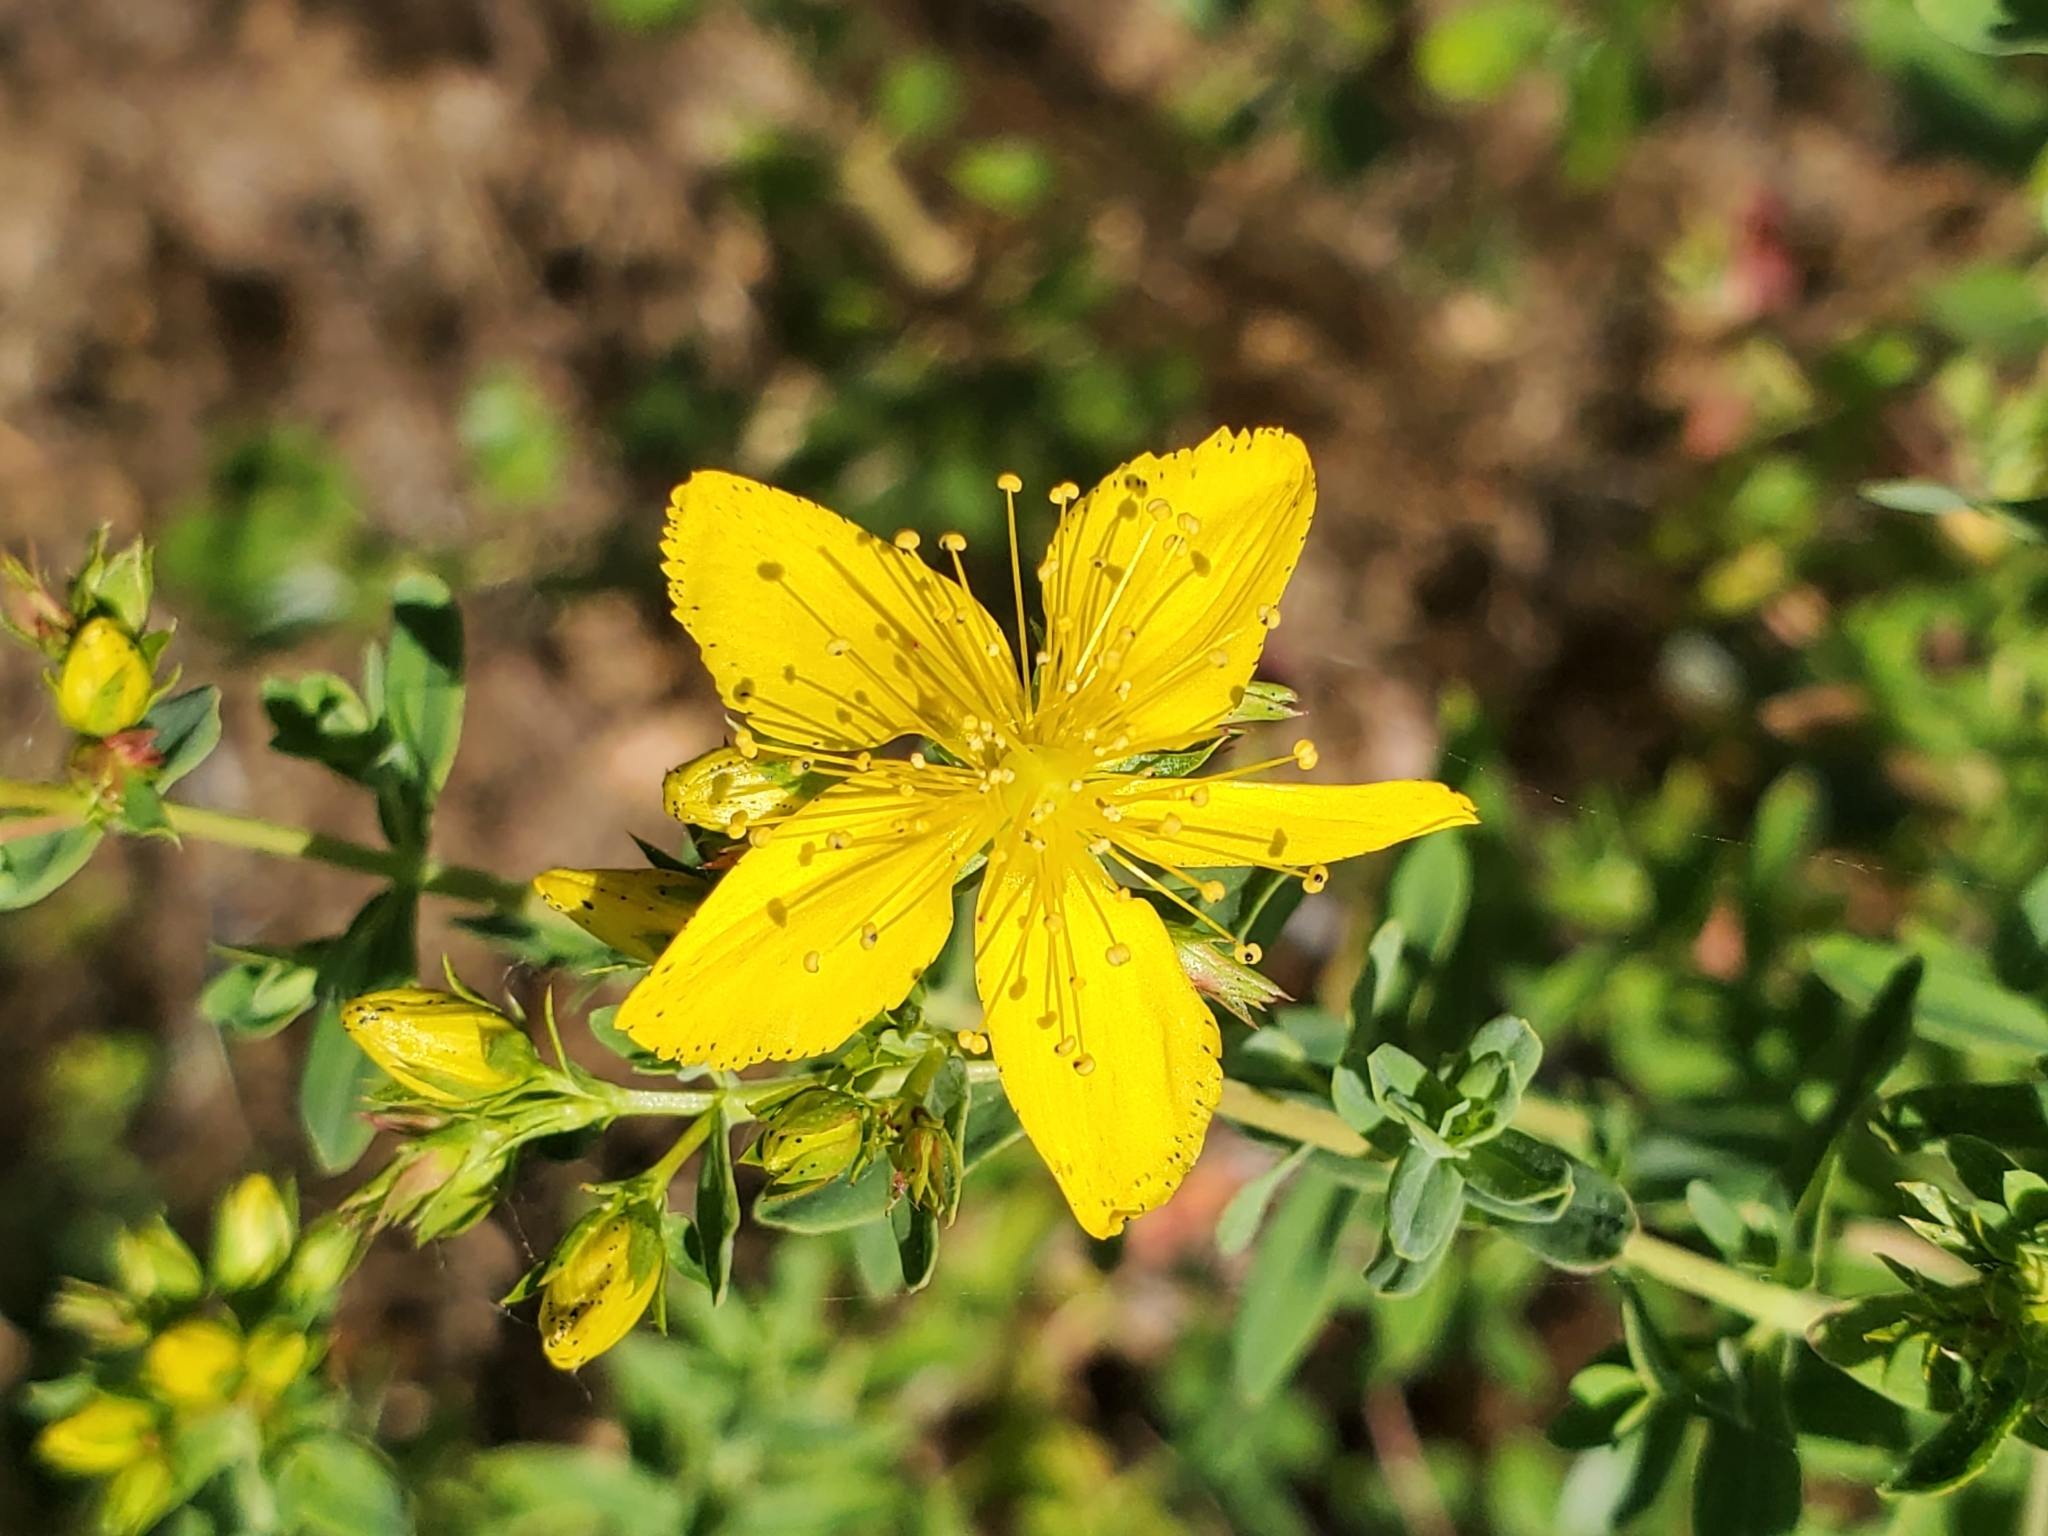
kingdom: Plantae
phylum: Tracheophyta
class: Magnoliopsida
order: Malpighiales
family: Hypericaceae
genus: Hypericum
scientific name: Hypericum perforatum
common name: Common st. johnswort
